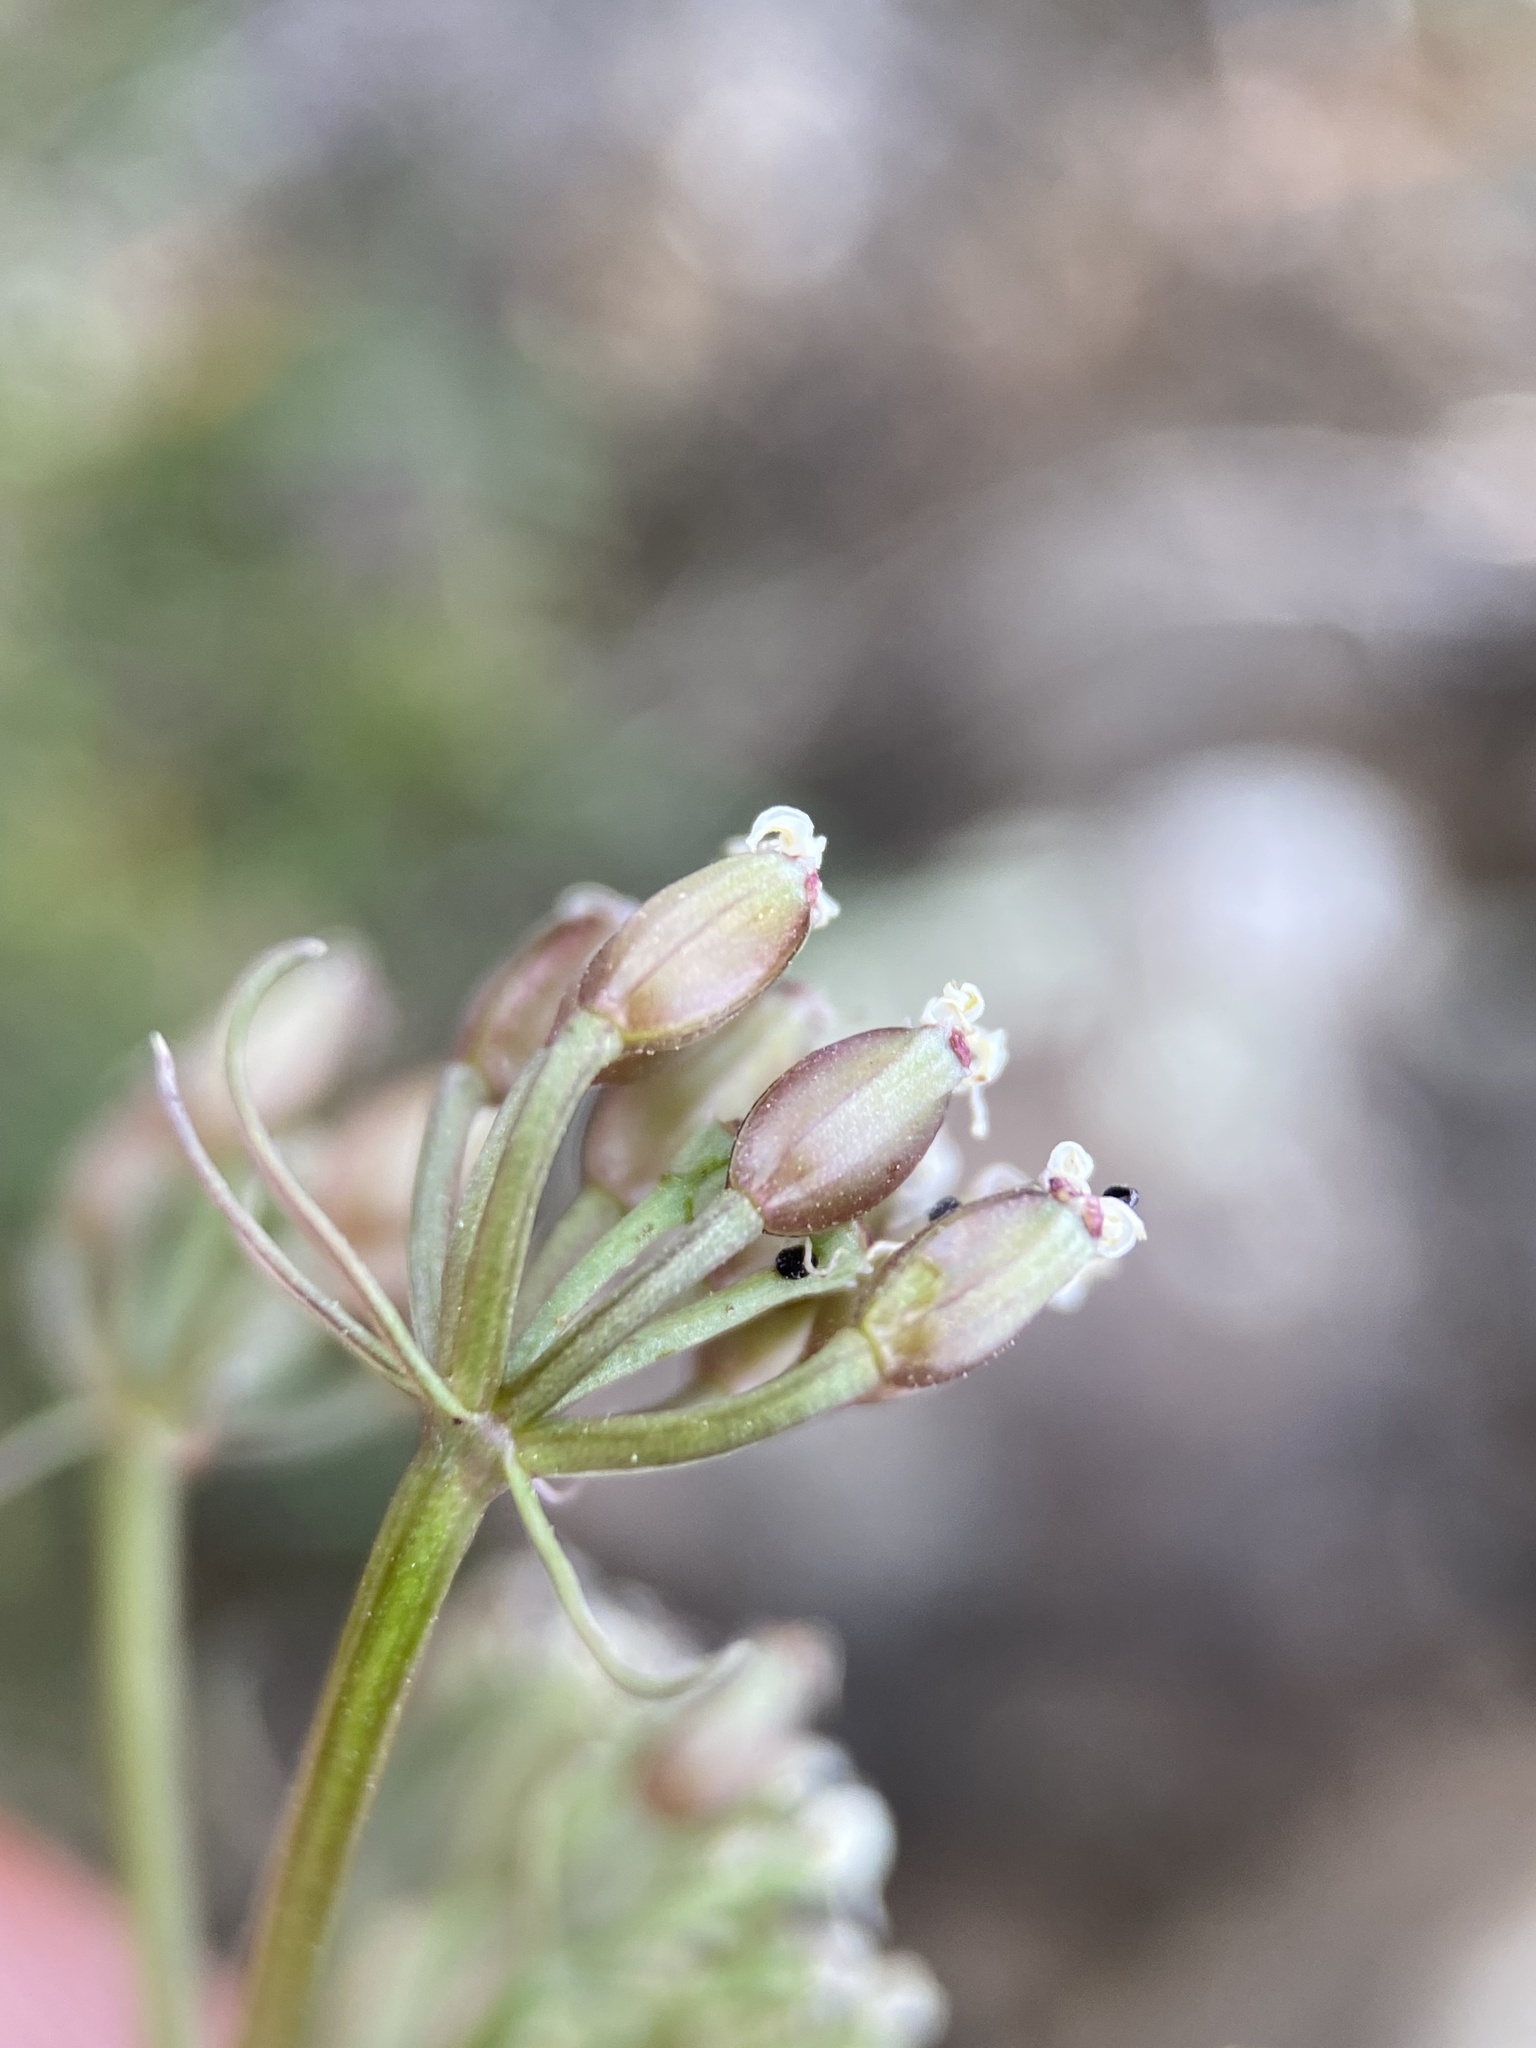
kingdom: Plantae
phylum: Tracheophyta
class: Magnoliopsida
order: Apiales
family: Apiaceae
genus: Lomatium
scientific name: Lomatium canbyi
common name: Chucklusa
